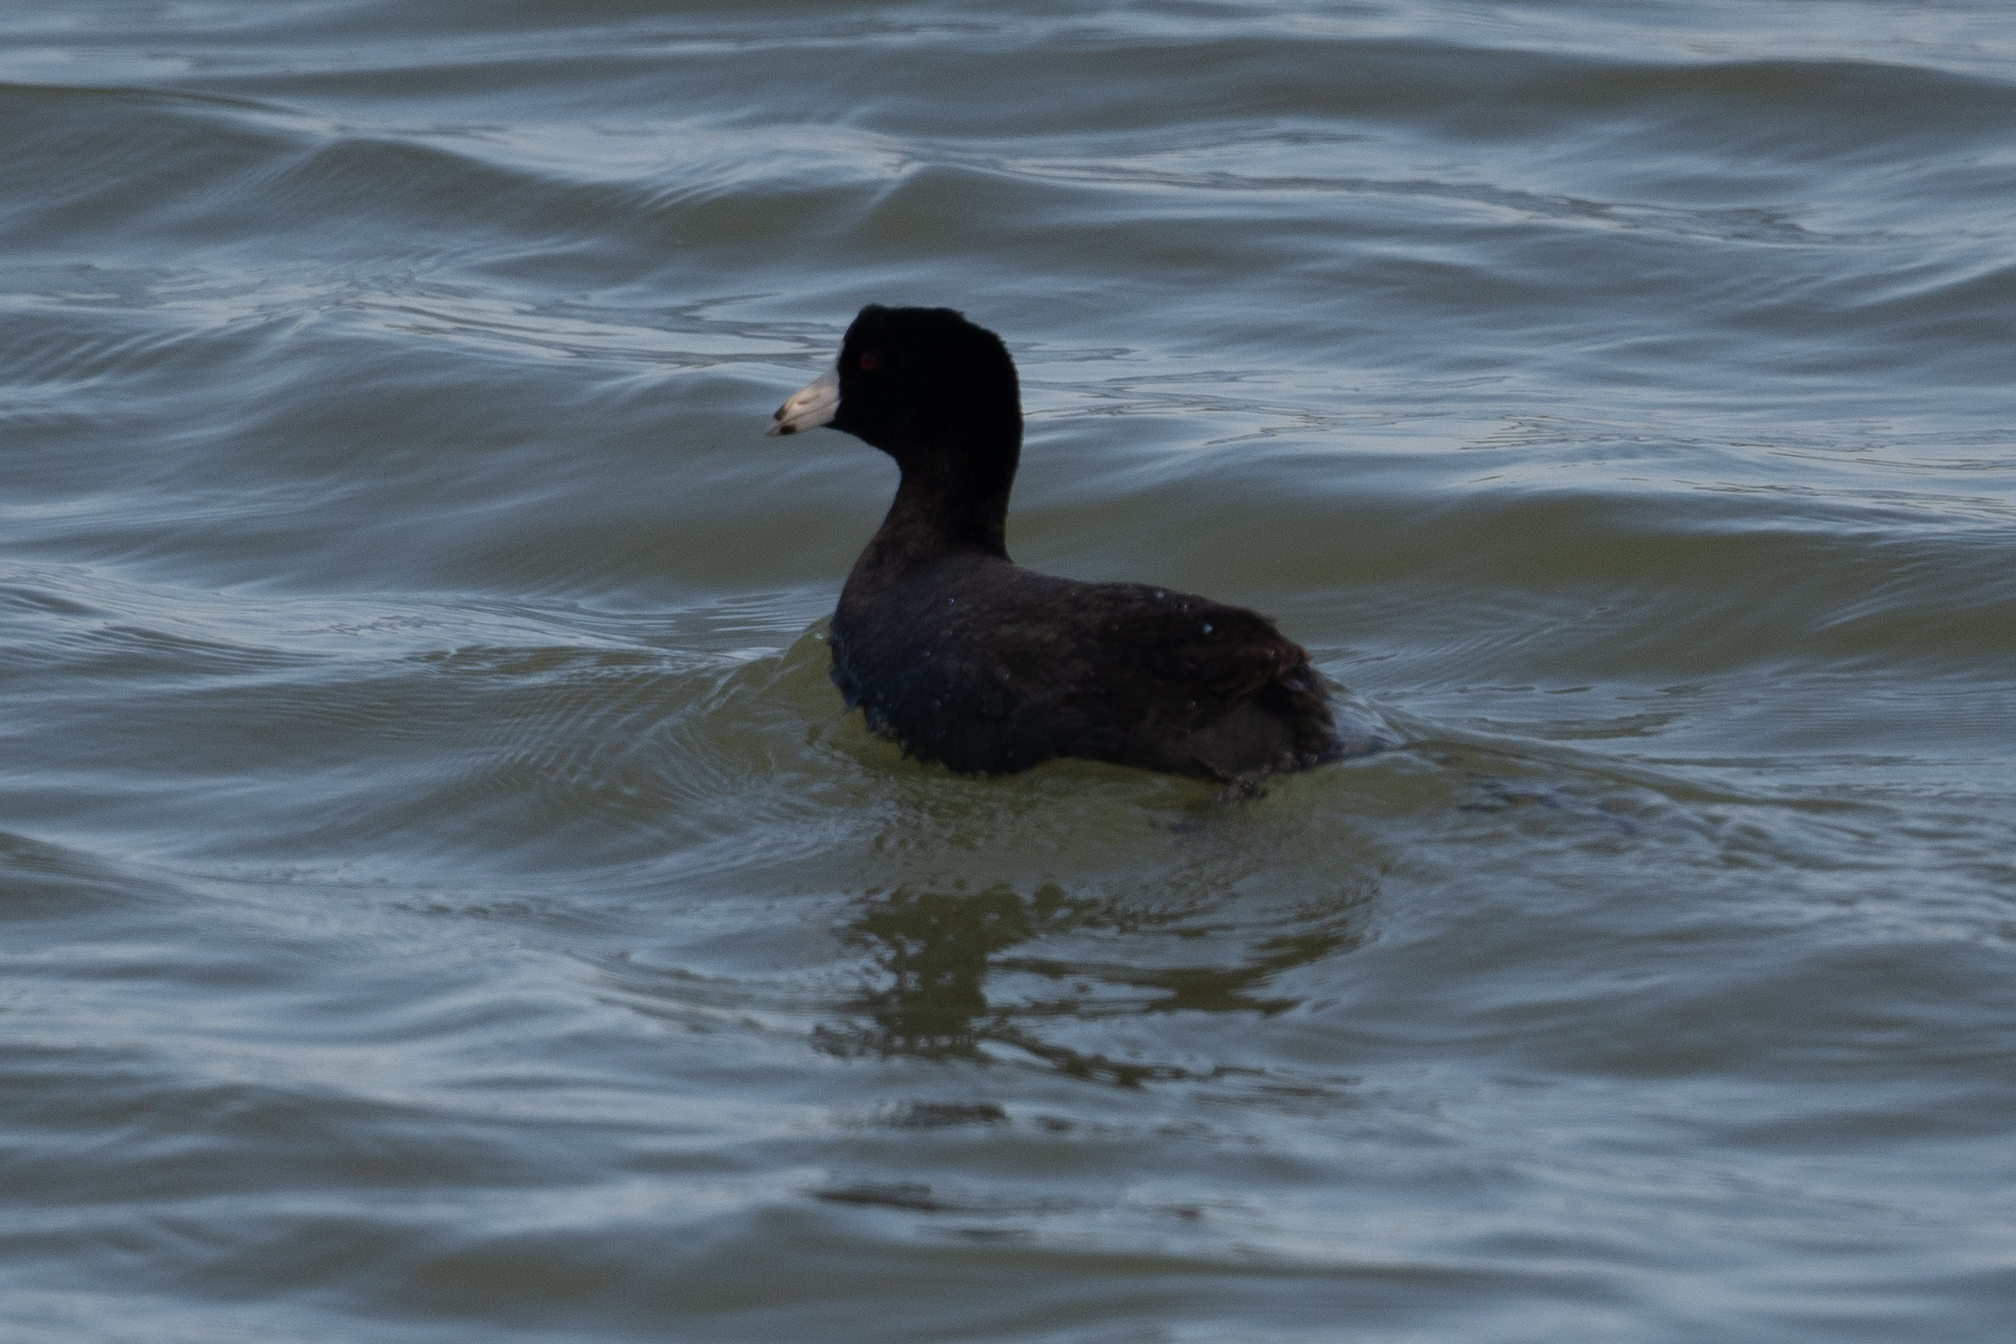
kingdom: Animalia
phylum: Chordata
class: Aves
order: Gruiformes
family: Rallidae
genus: Fulica
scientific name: Fulica americana
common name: American coot
